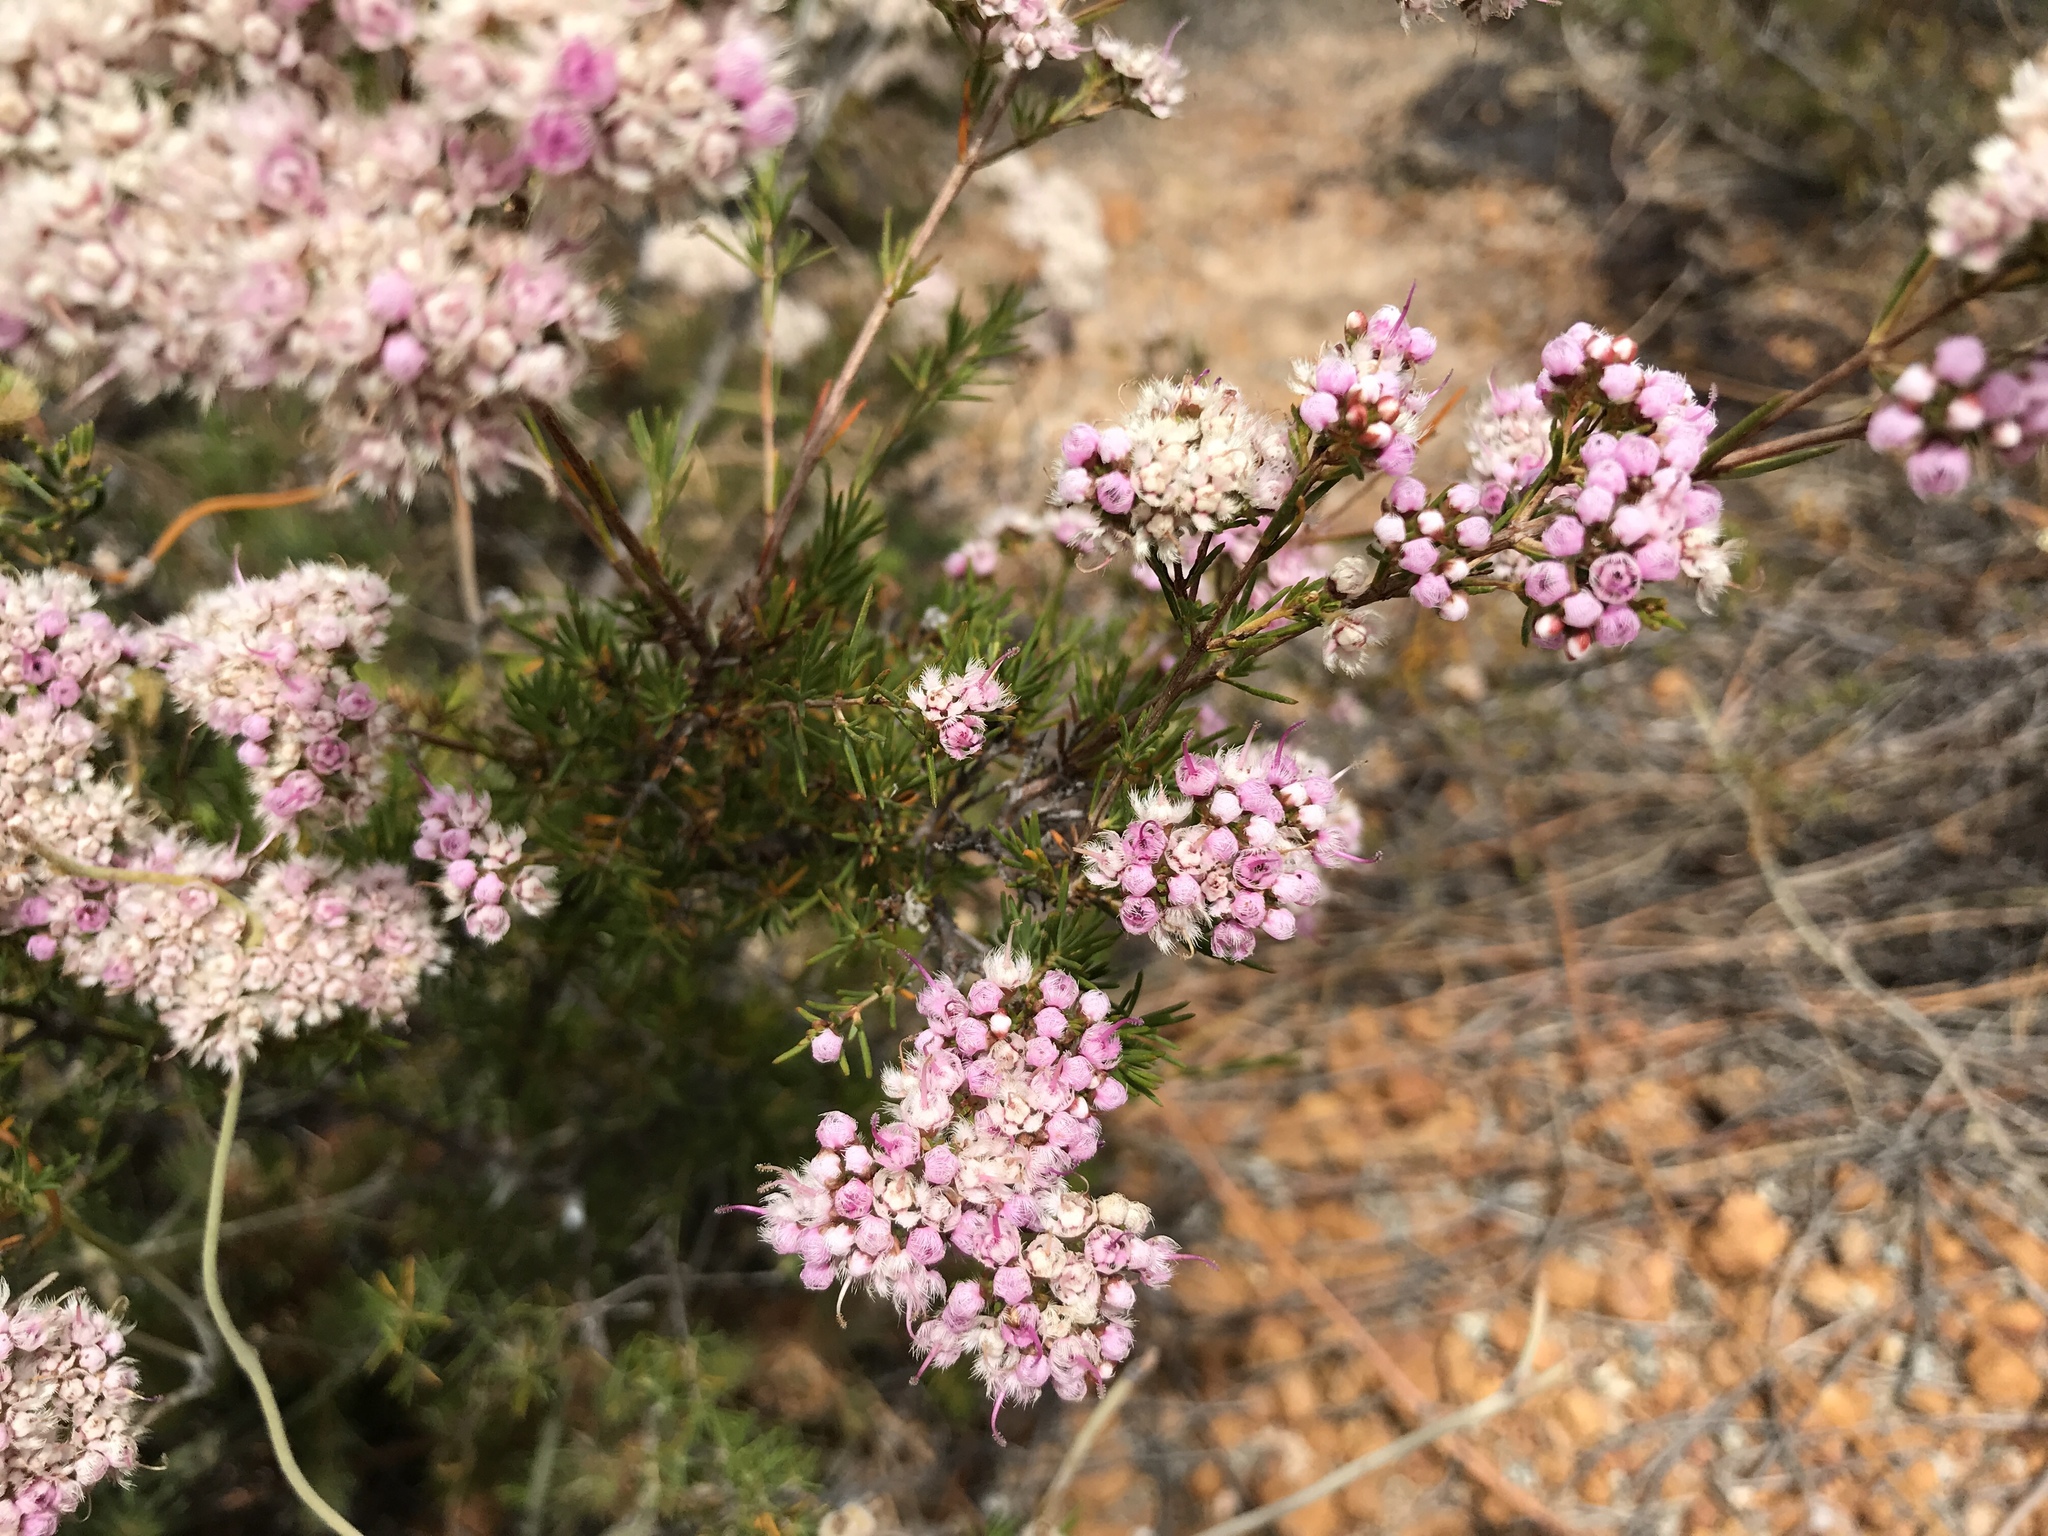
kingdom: Plantae
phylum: Tracheophyta
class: Magnoliopsida
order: Myrtales
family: Myrtaceae
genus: Verticordia
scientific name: Verticordia densiflora
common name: Compact feather-flower
